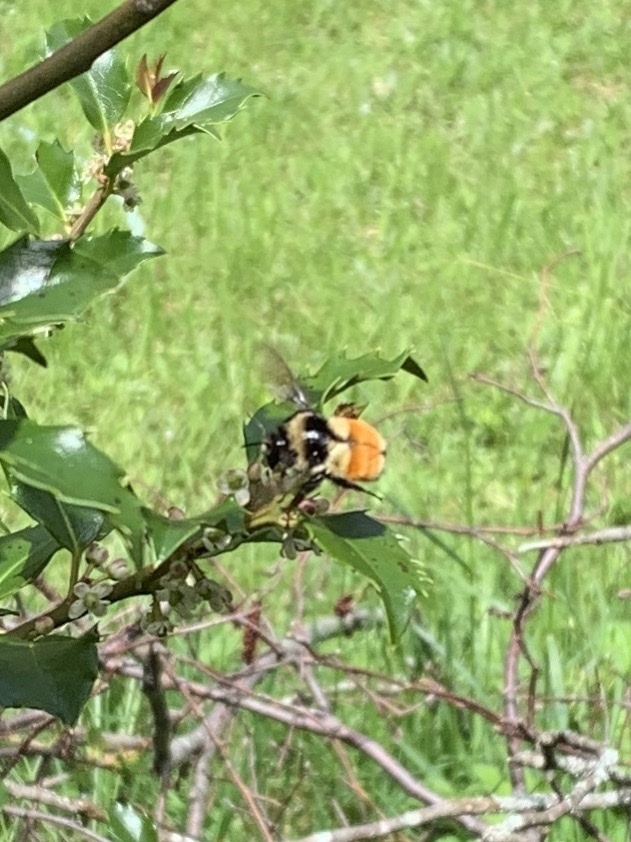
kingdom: Animalia
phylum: Arthropoda
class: Insecta
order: Hymenoptera
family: Apidae
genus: Bombus
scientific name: Bombus ternarius
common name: Tri-colored bumble bee
